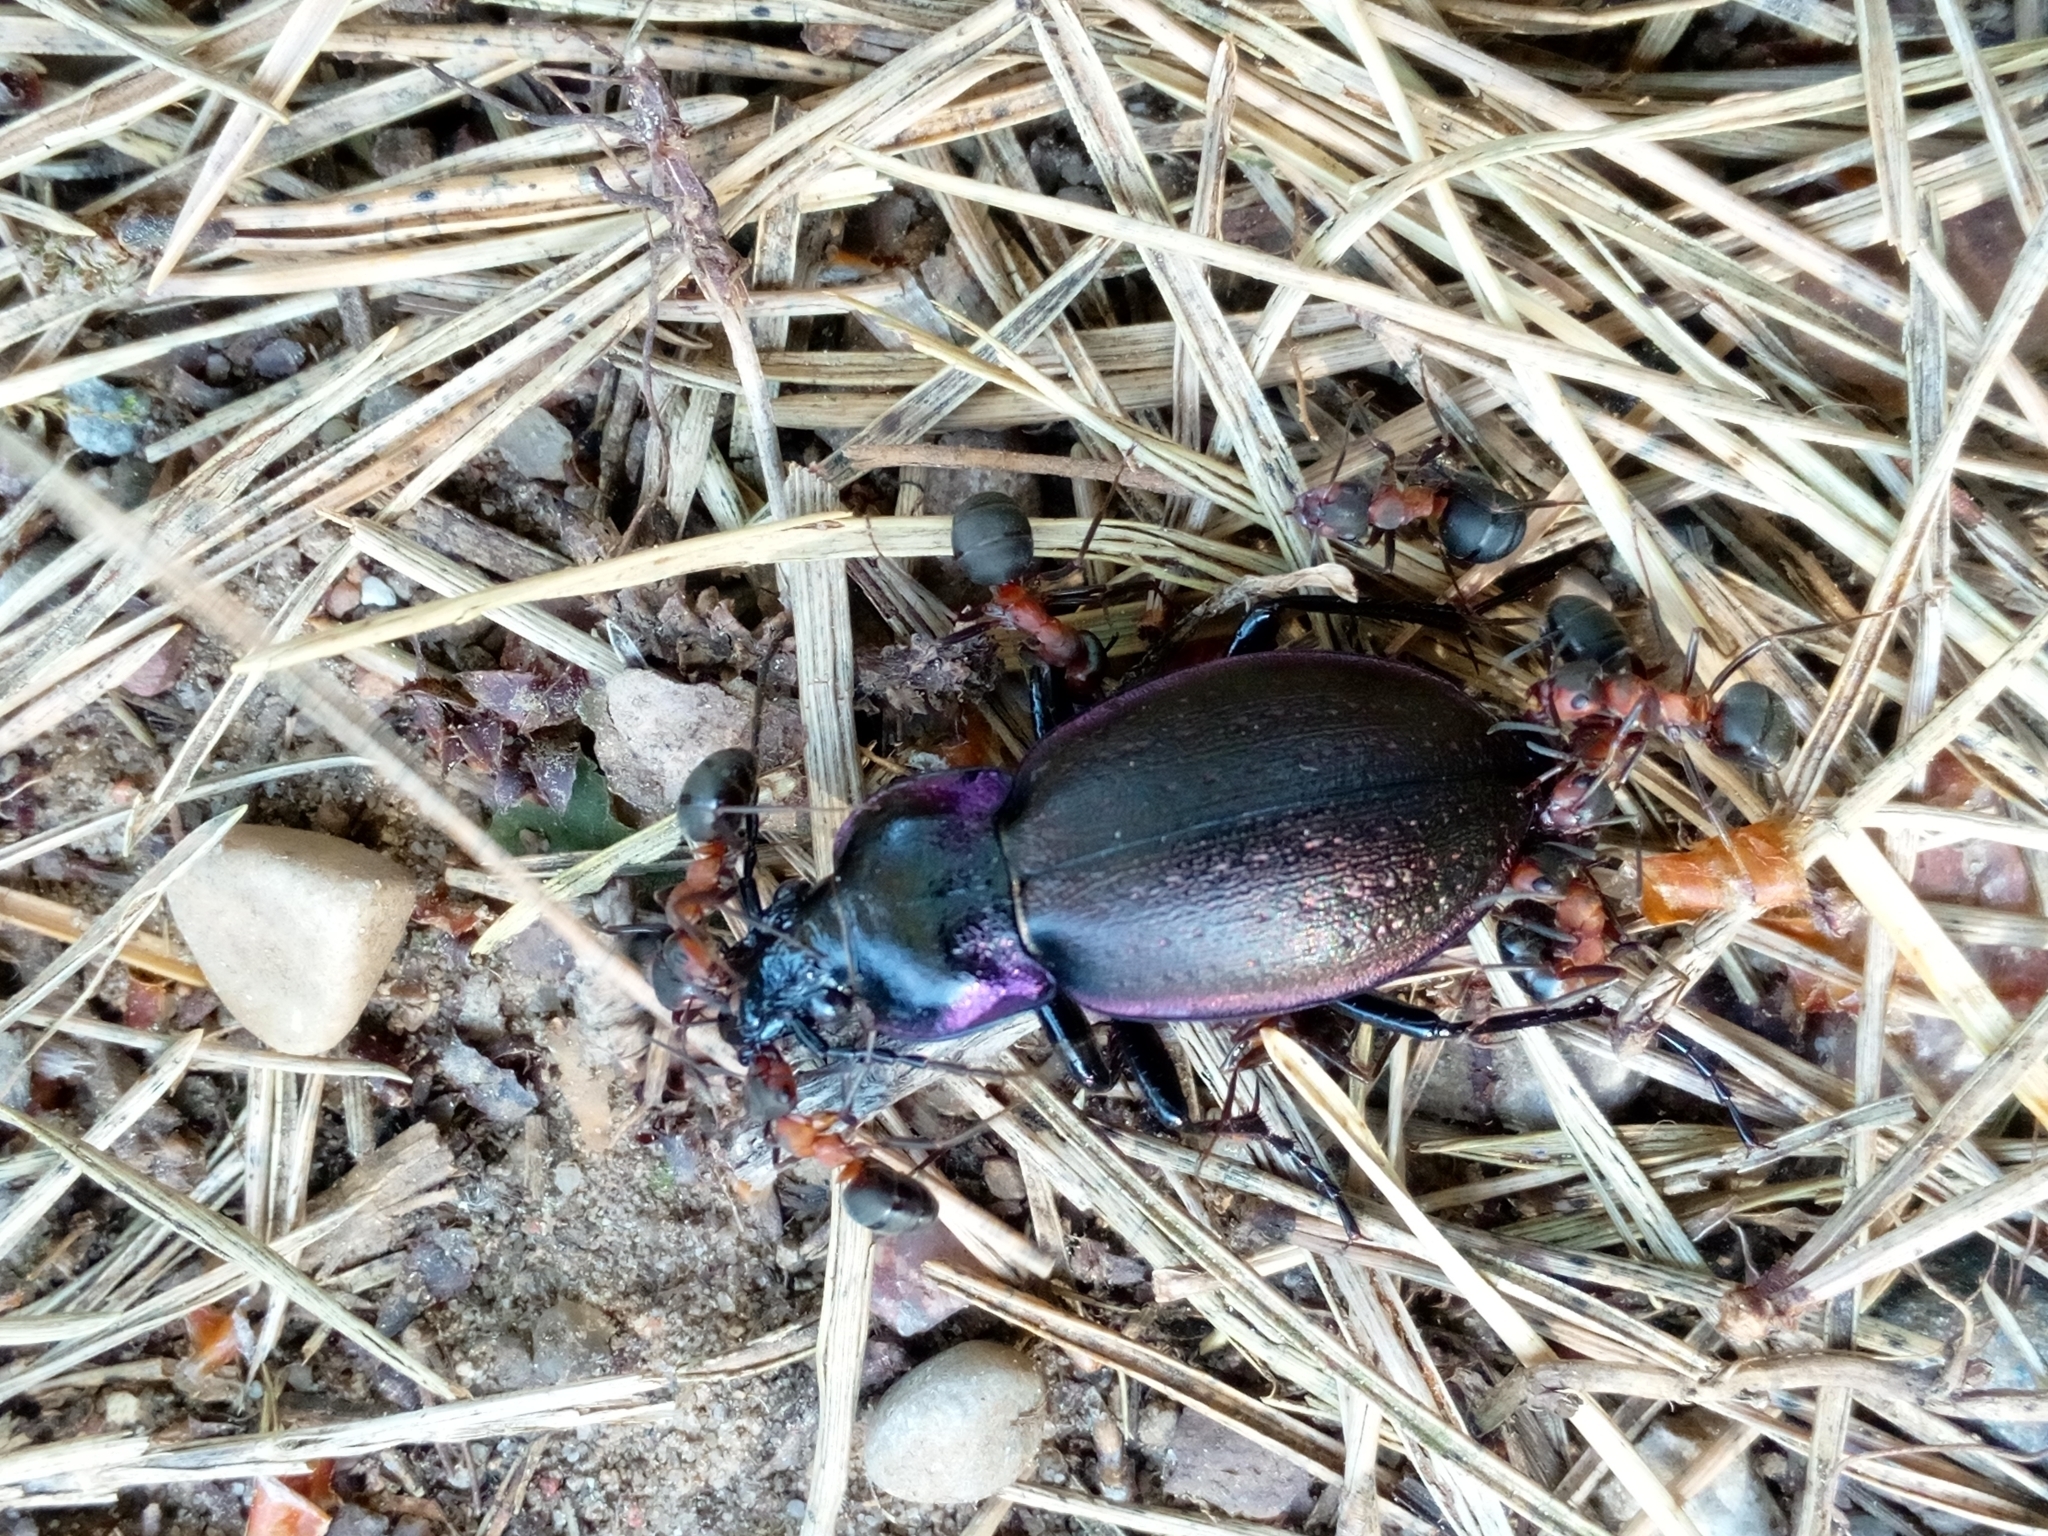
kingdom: Animalia
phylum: Arthropoda
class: Insecta
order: Coleoptera
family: Carabidae
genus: Carabus
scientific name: Carabus nemoralis
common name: European ground beetle
